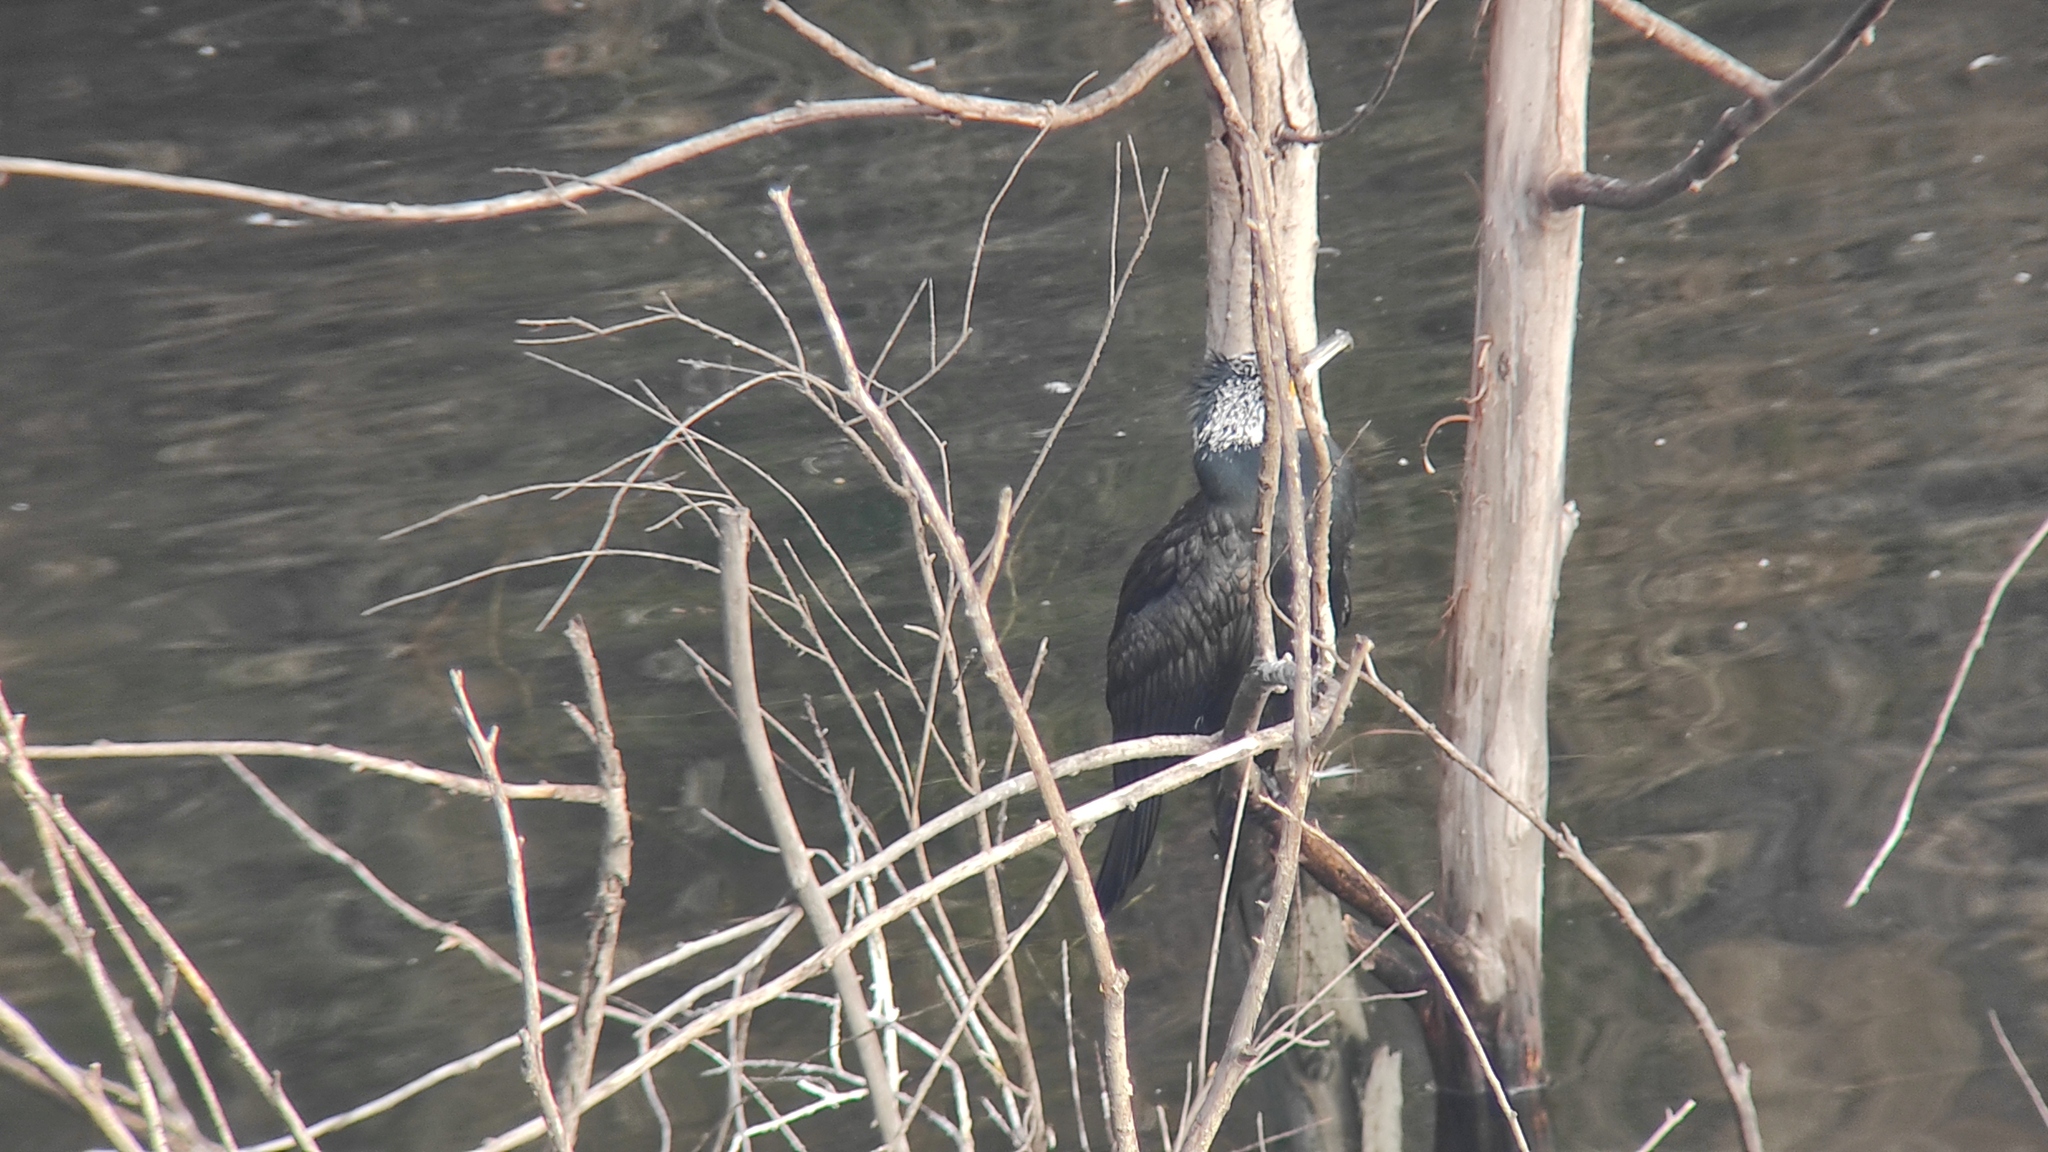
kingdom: Animalia
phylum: Chordata
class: Aves
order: Suliformes
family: Phalacrocoracidae
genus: Phalacrocorax
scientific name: Phalacrocorax carbo
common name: Great cormorant
